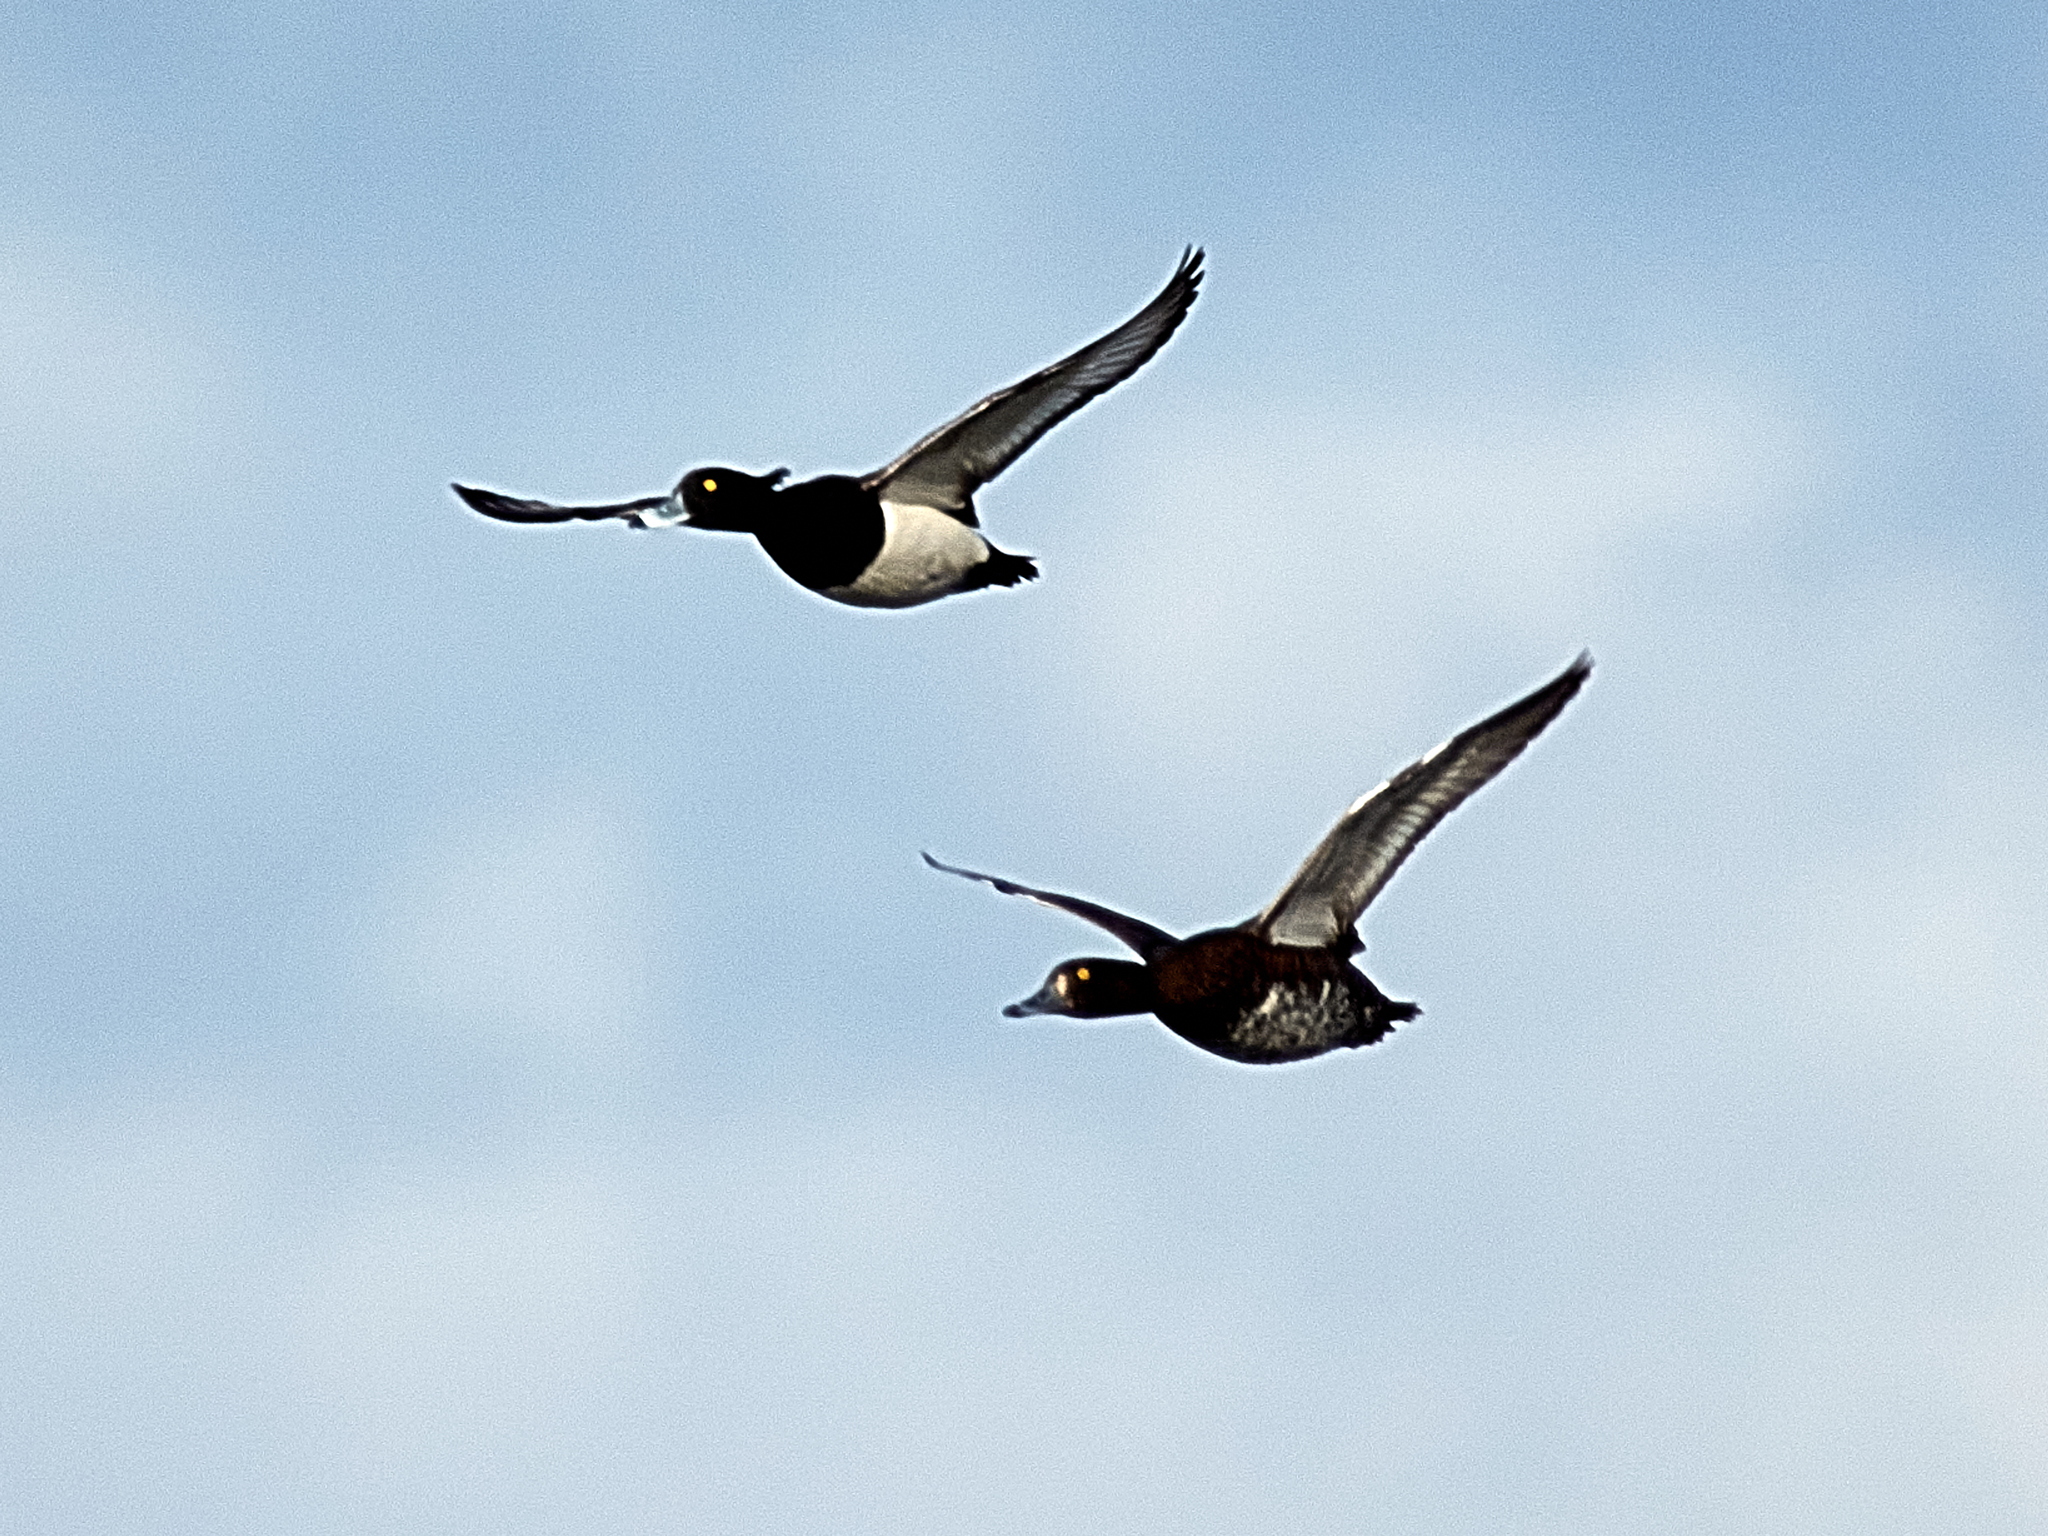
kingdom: Animalia
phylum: Chordata
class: Aves
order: Anseriformes
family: Anatidae
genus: Aythya
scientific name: Aythya fuligula
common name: Tufted duck
